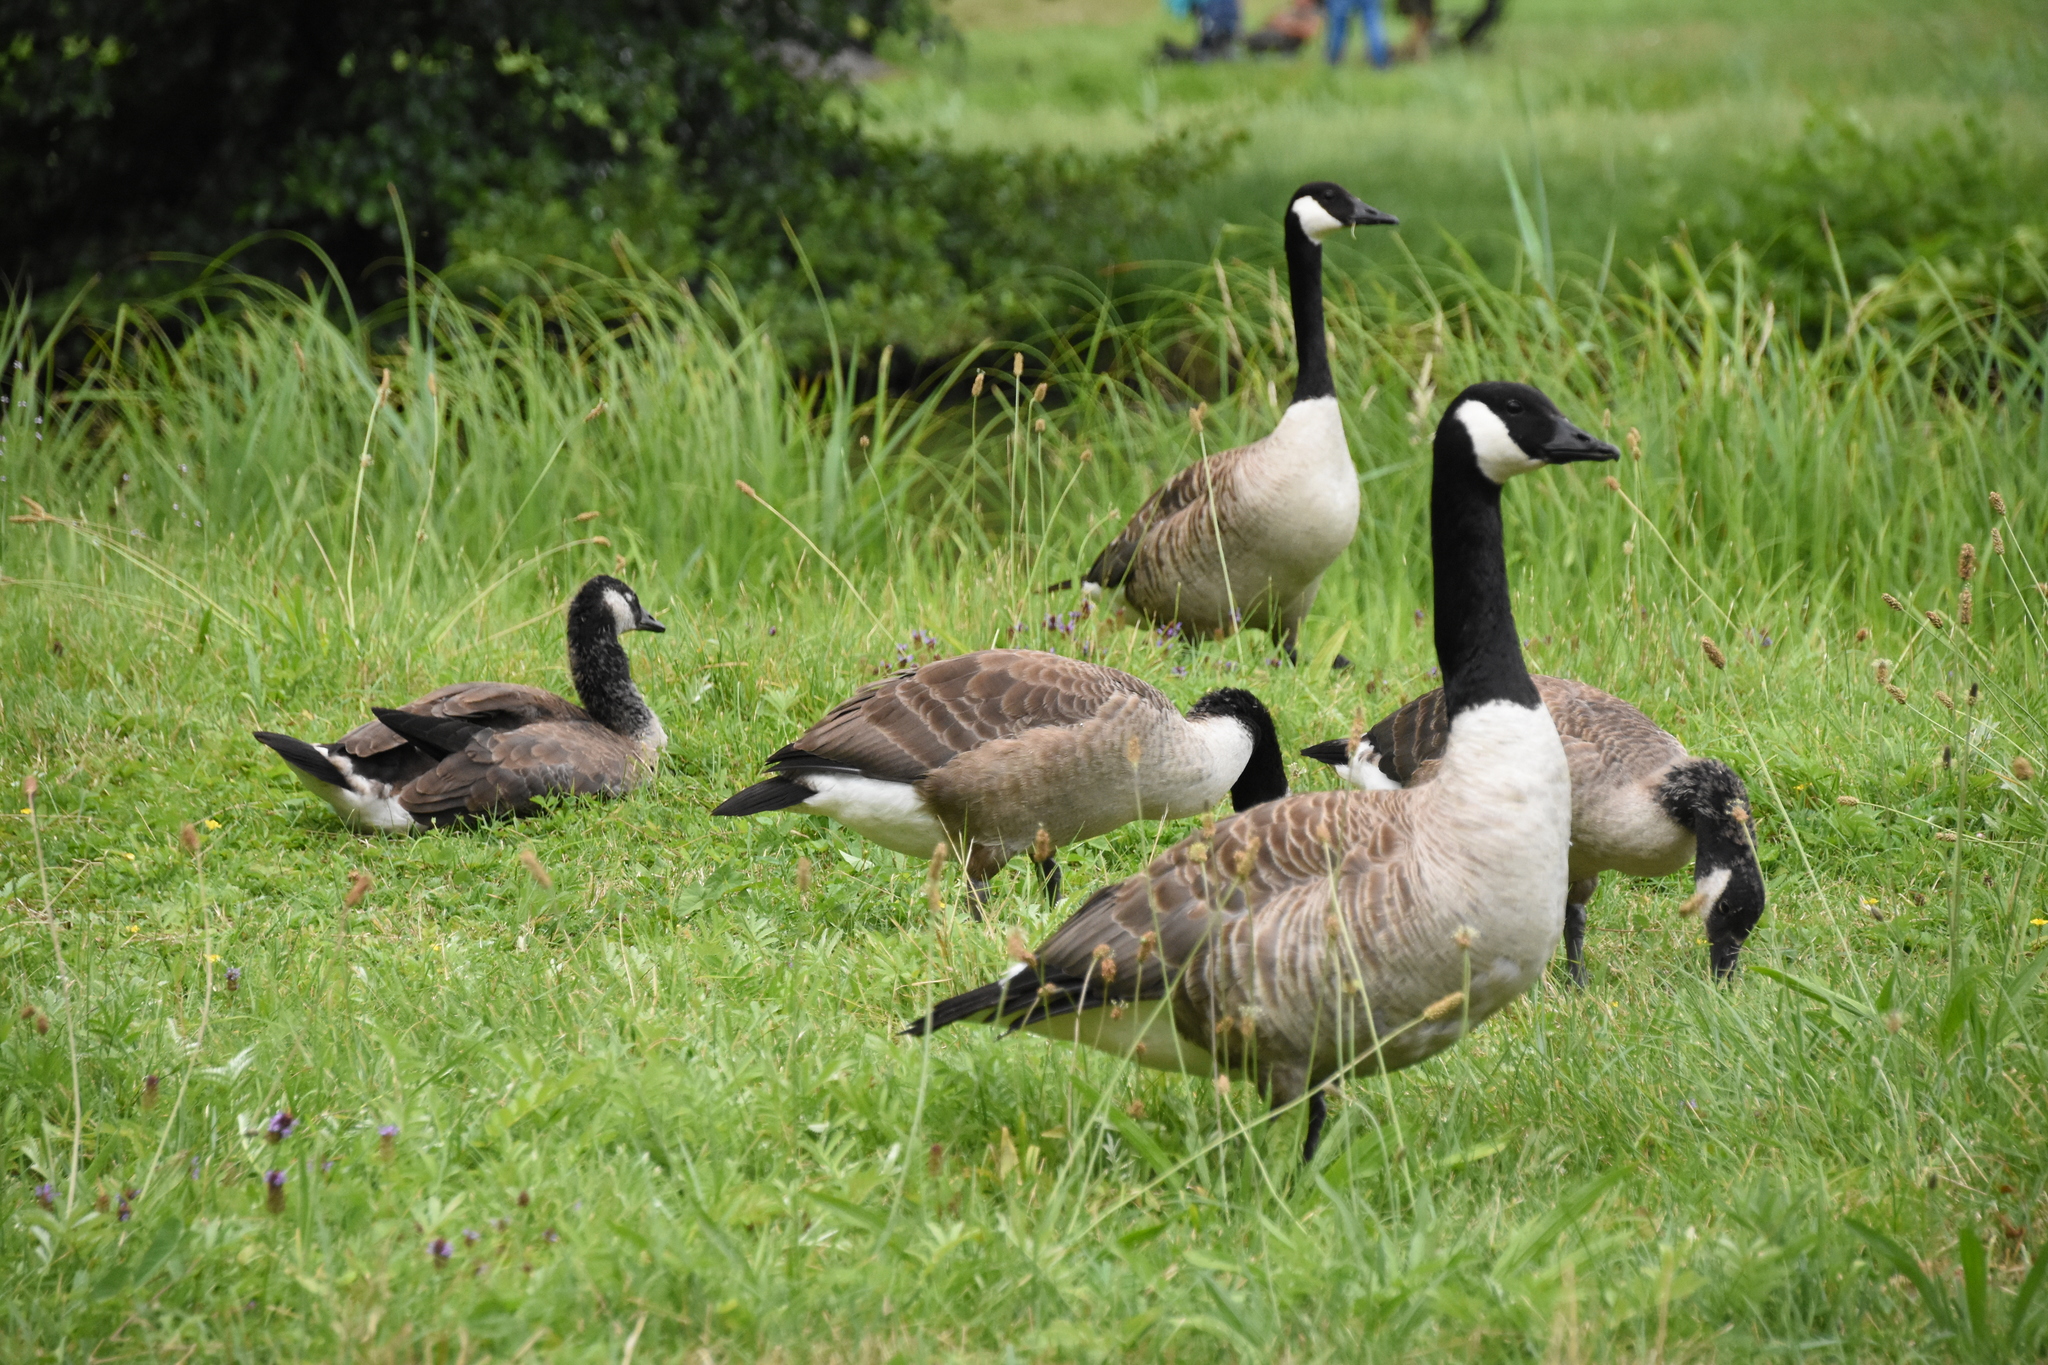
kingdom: Animalia
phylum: Chordata
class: Aves
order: Anseriformes
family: Anatidae
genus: Branta
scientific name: Branta canadensis
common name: Canada goose
